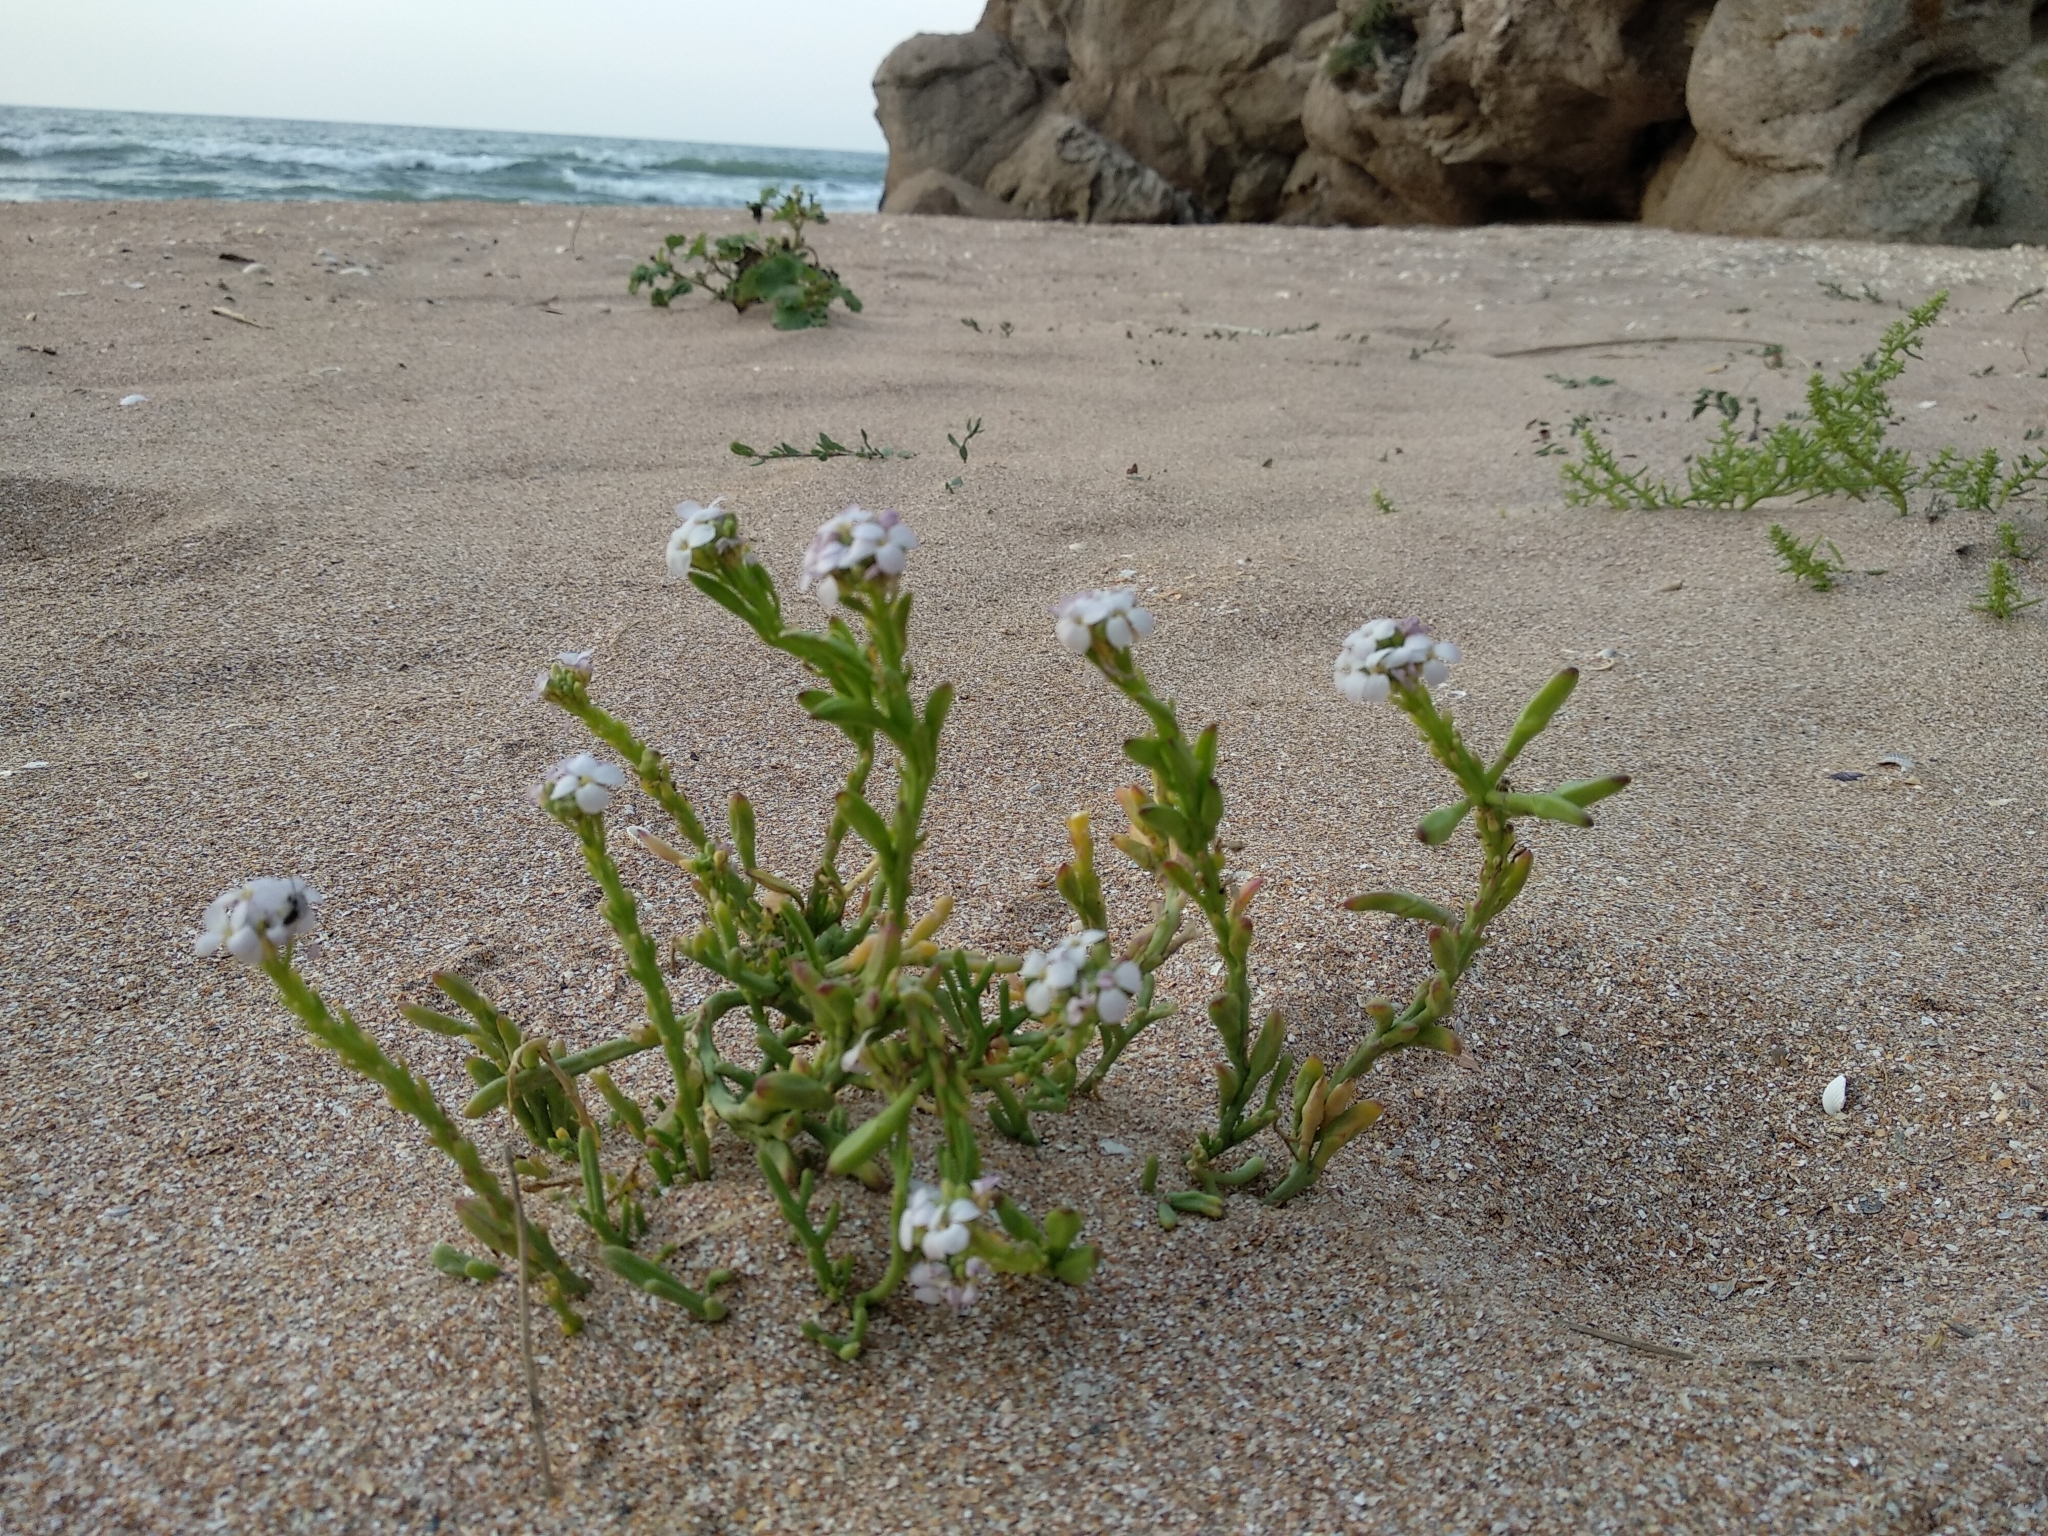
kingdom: Plantae
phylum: Tracheophyta
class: Magnoliopsida
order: Brassicales
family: Brassicaceae
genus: Cakile
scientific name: Cakile maritima
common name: Sea rocket
